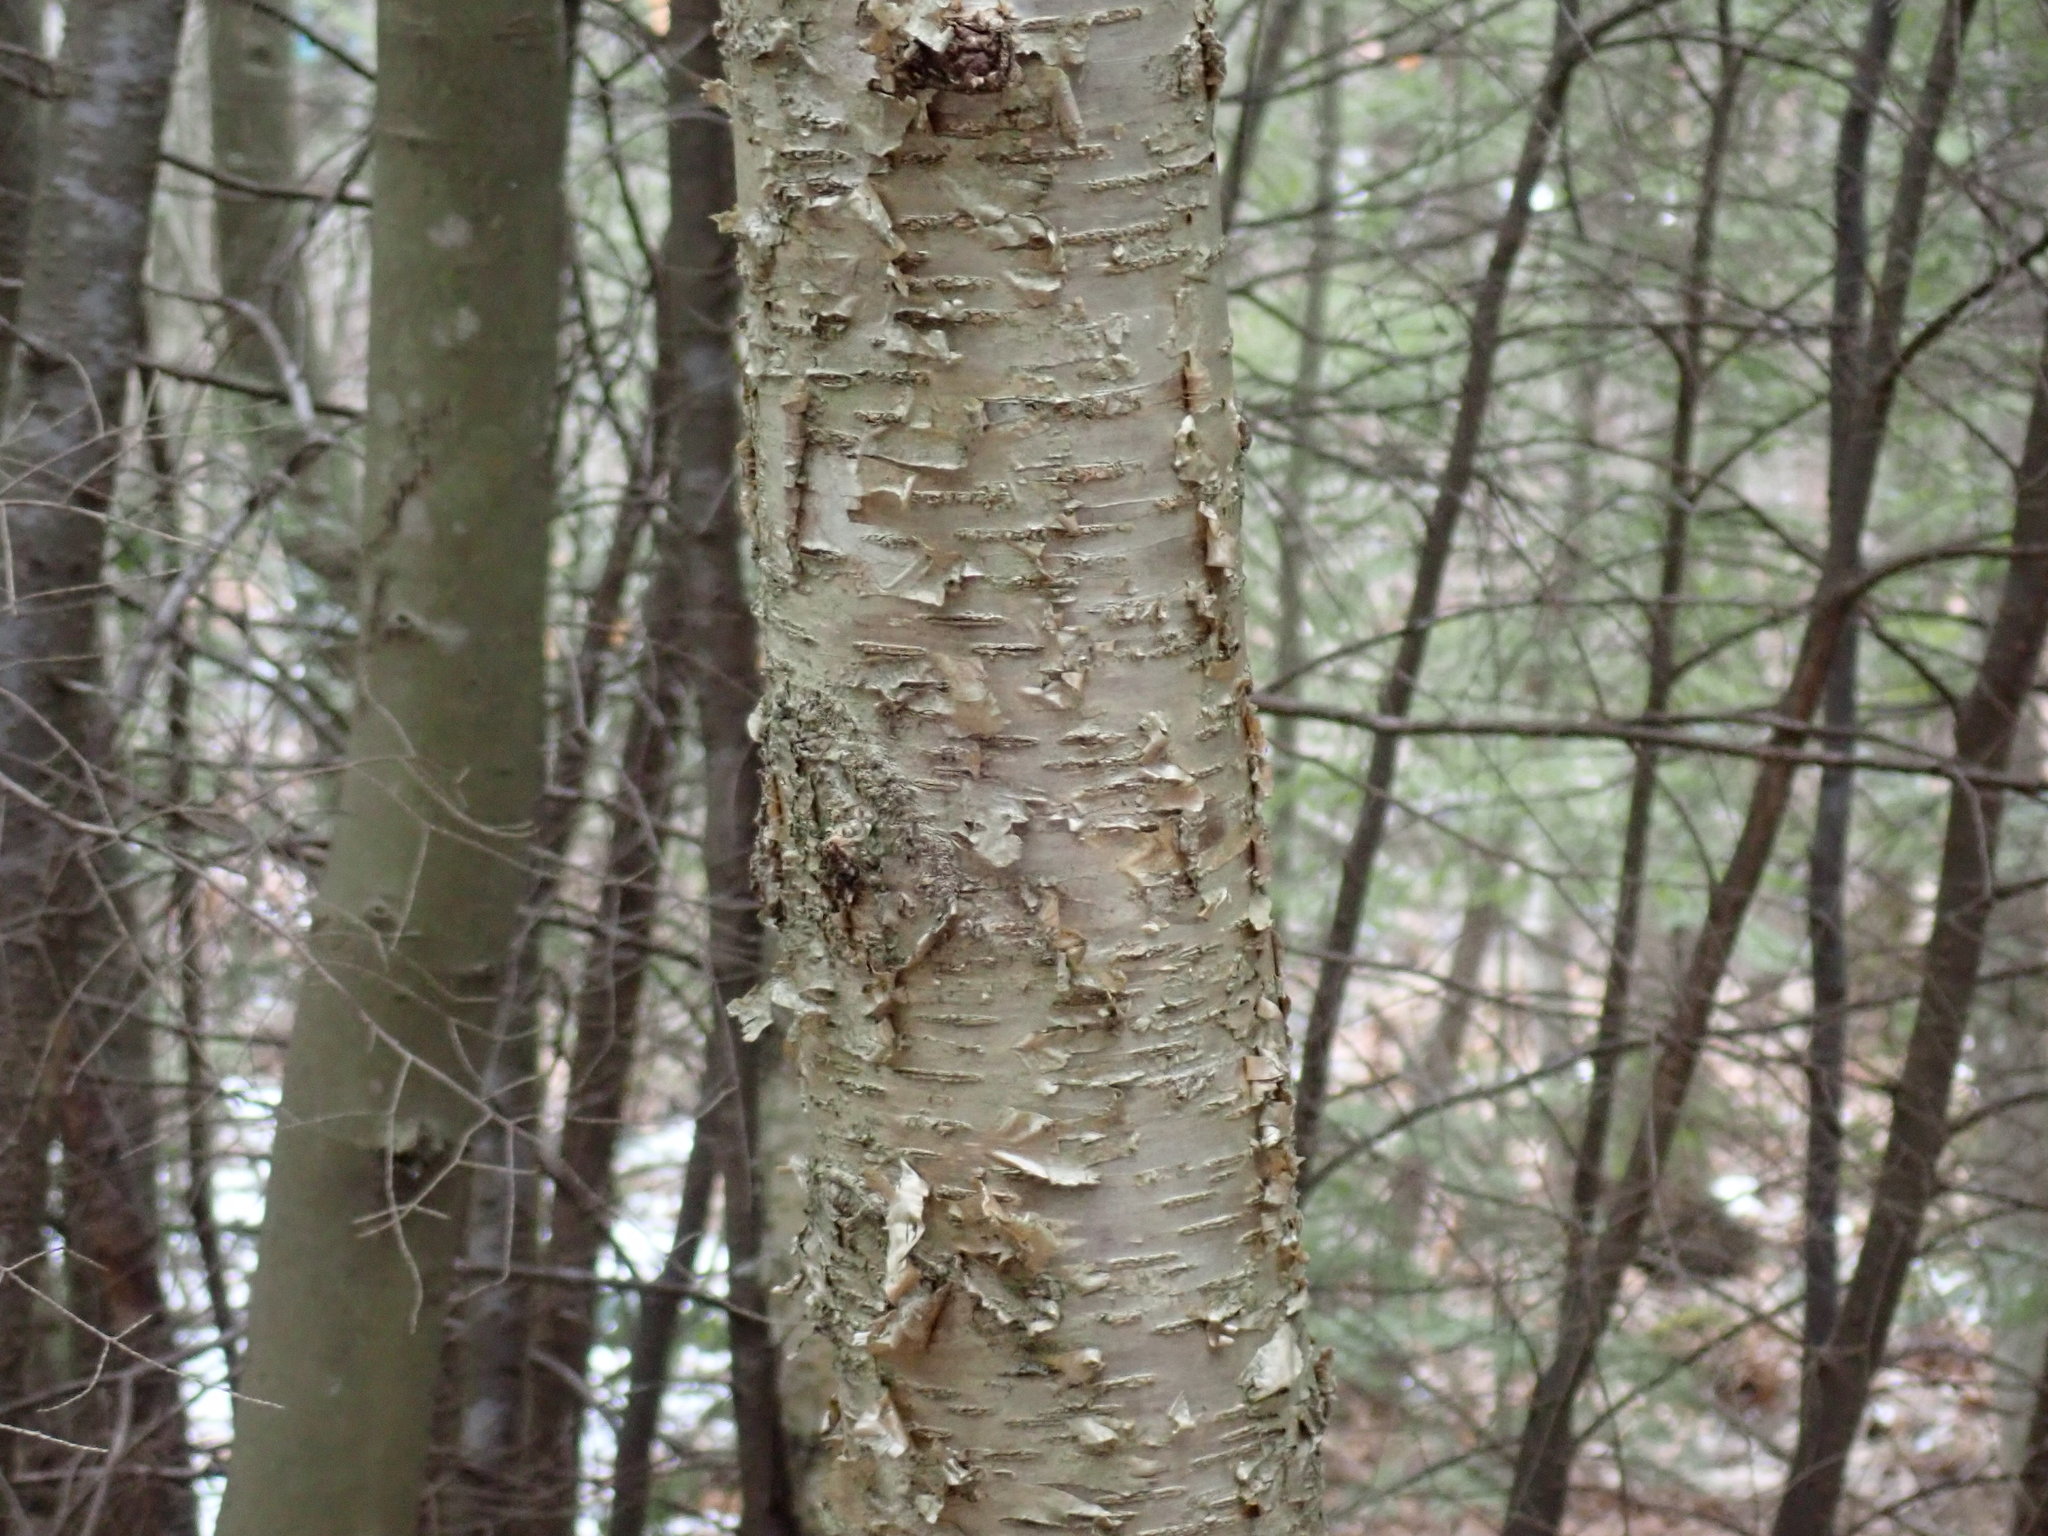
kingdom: Plantae
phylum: Tracheophyta
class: Magnoliopsida
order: Fagales
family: Betulaceae
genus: Betula
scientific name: Betula alleghaniensis
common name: Yellow birch
